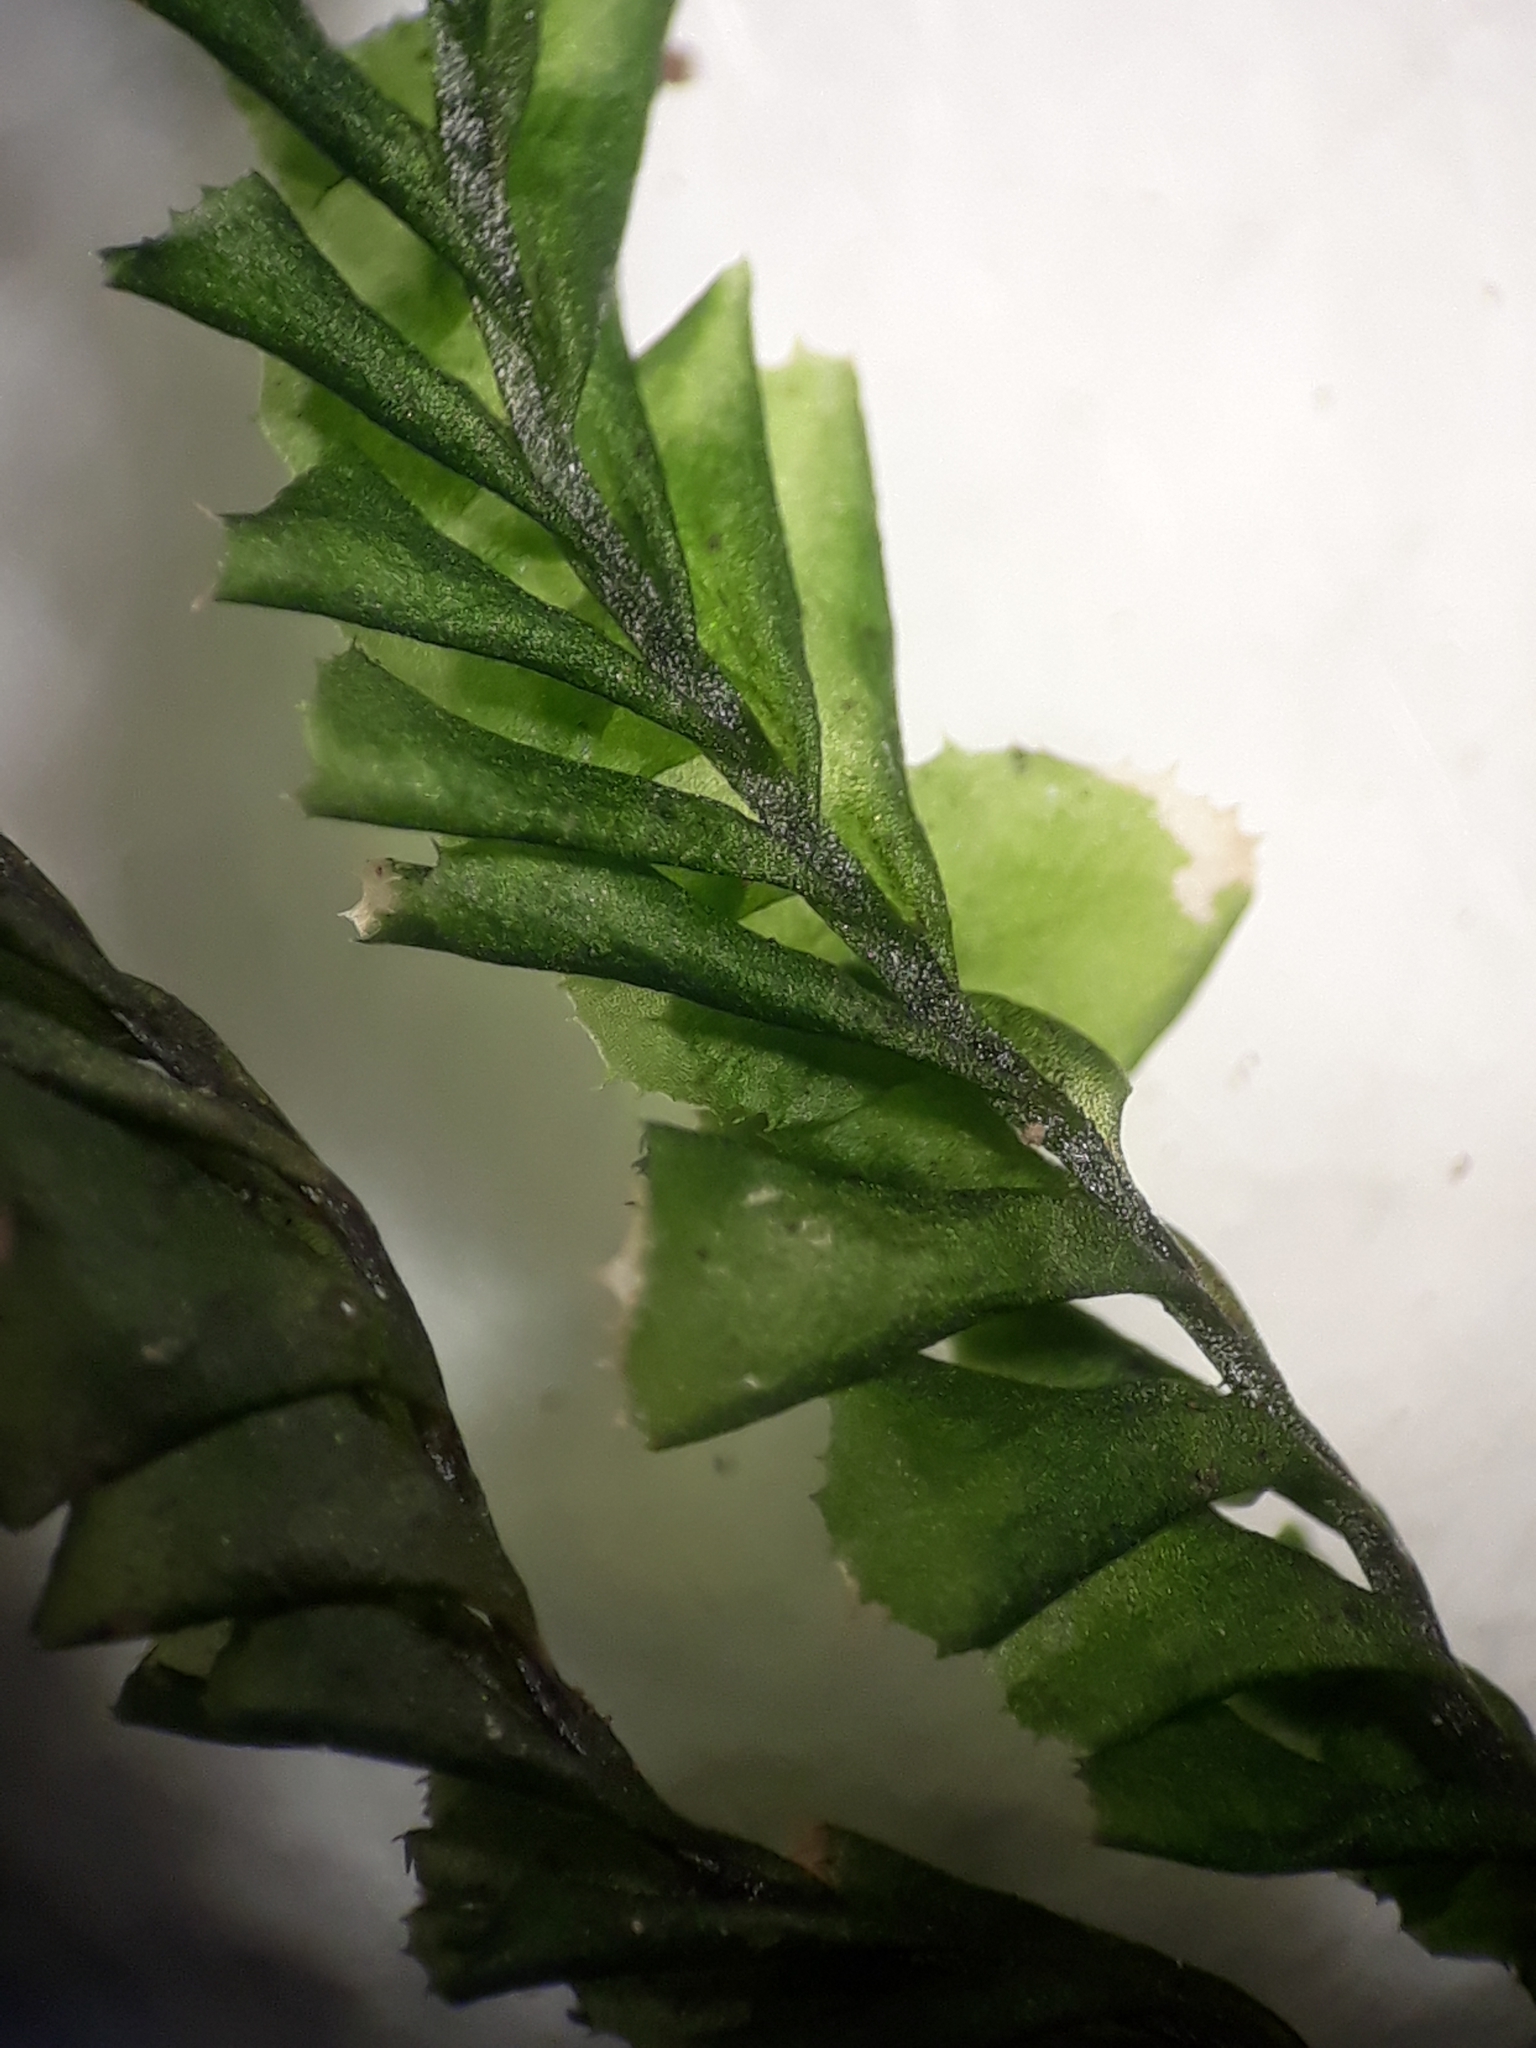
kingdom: Plantae
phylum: Marchantiophyta
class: Jungermanniopsida
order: Jungermanniales
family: Plagiochilaceae
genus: Plagiochila
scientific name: Plagiochila deltoidea
